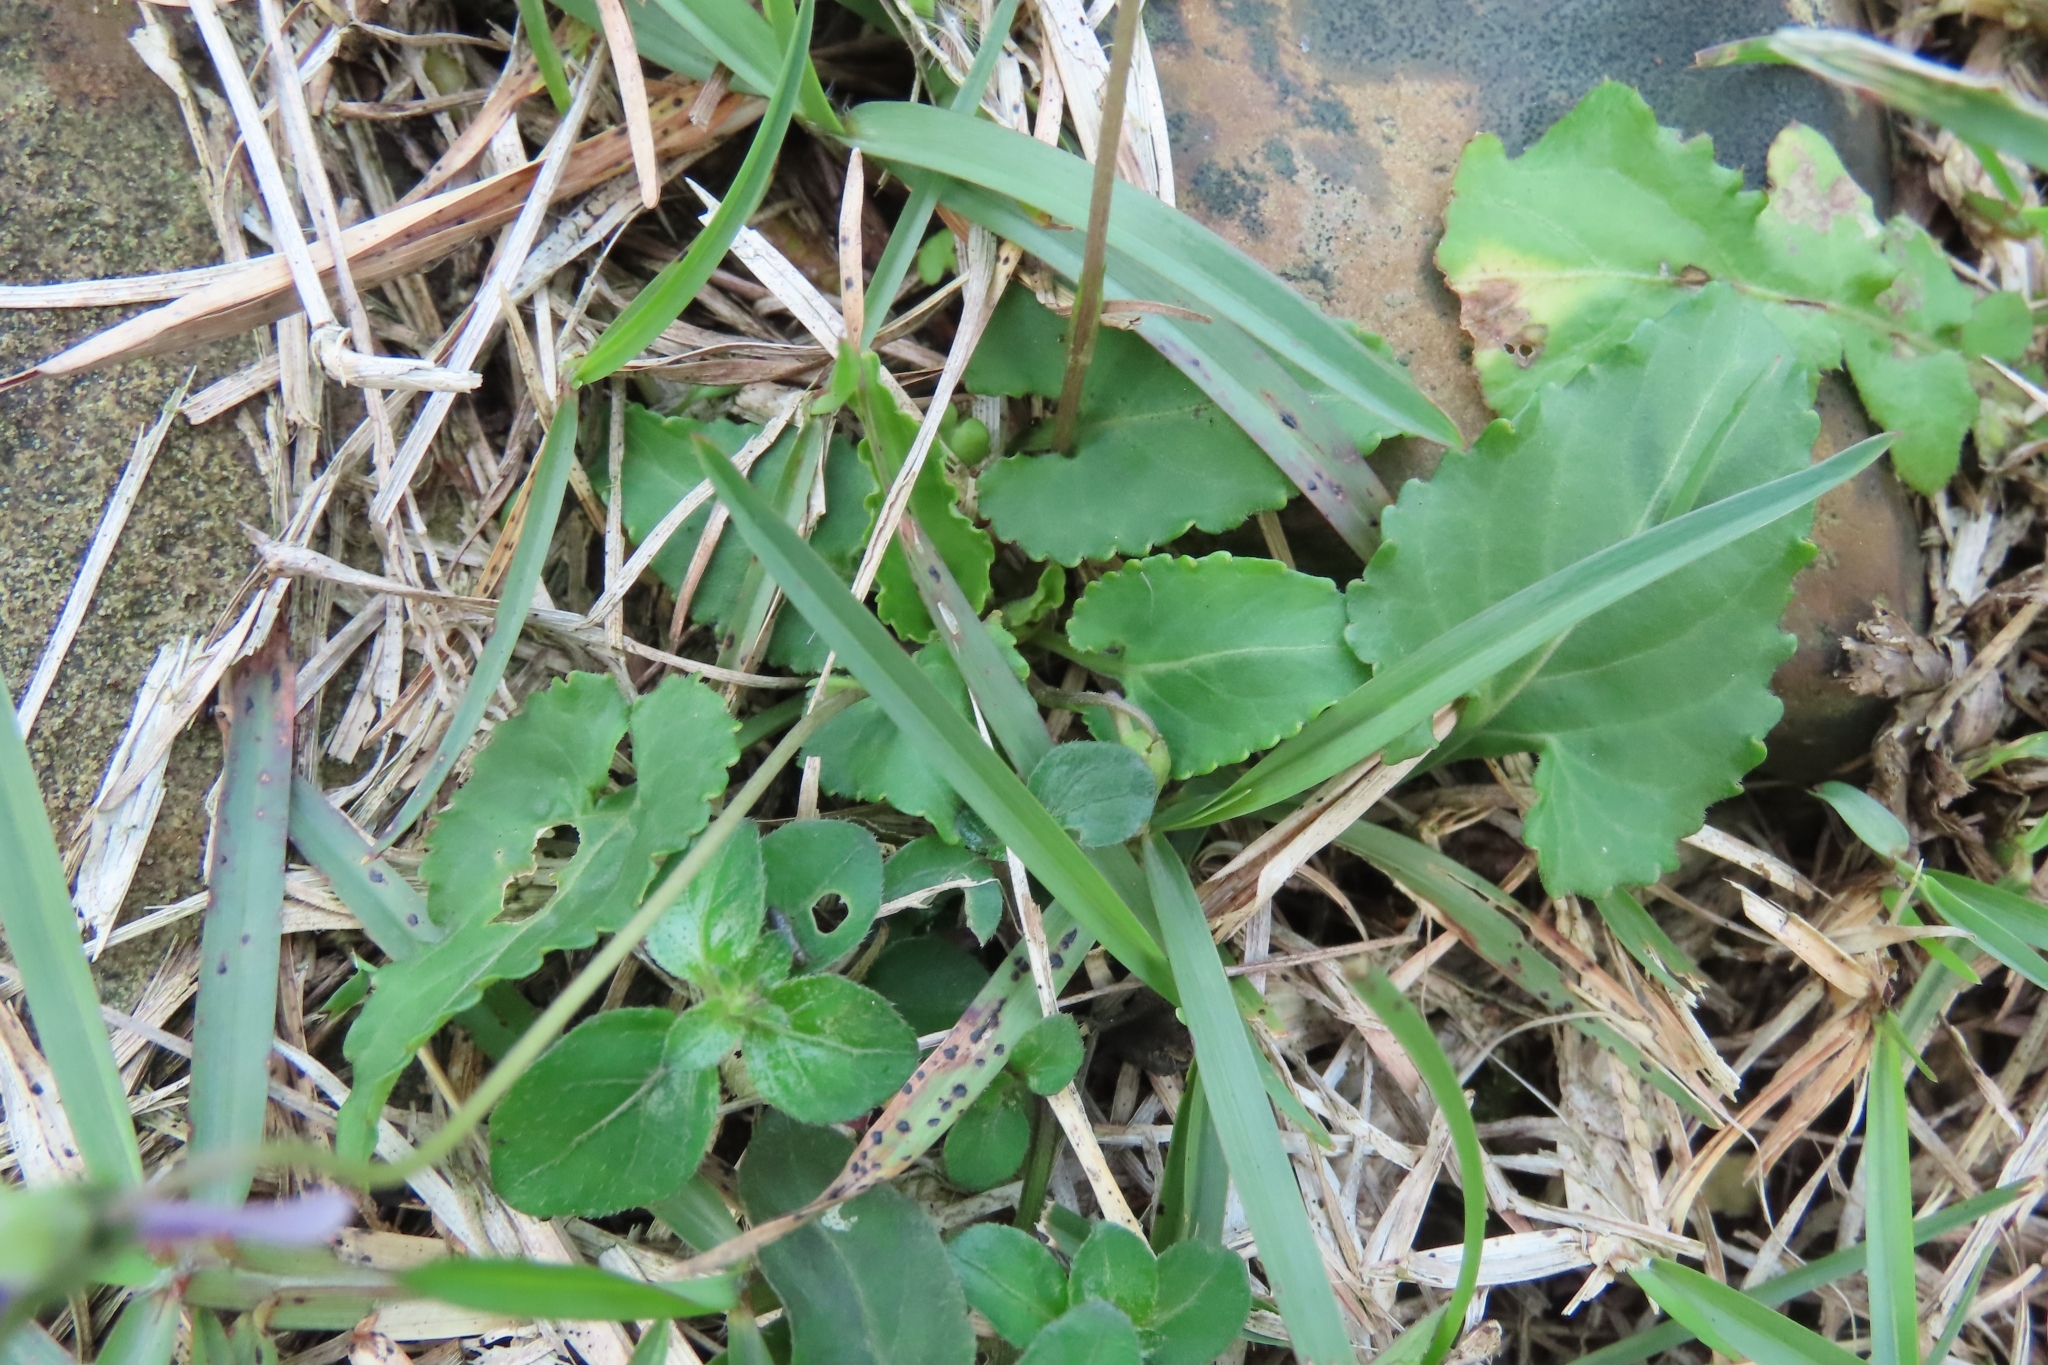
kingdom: Plantae
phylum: Tracheophyta
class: Magnoliopsida
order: Malpighiales
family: Violaceae
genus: Viola
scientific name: Viola
